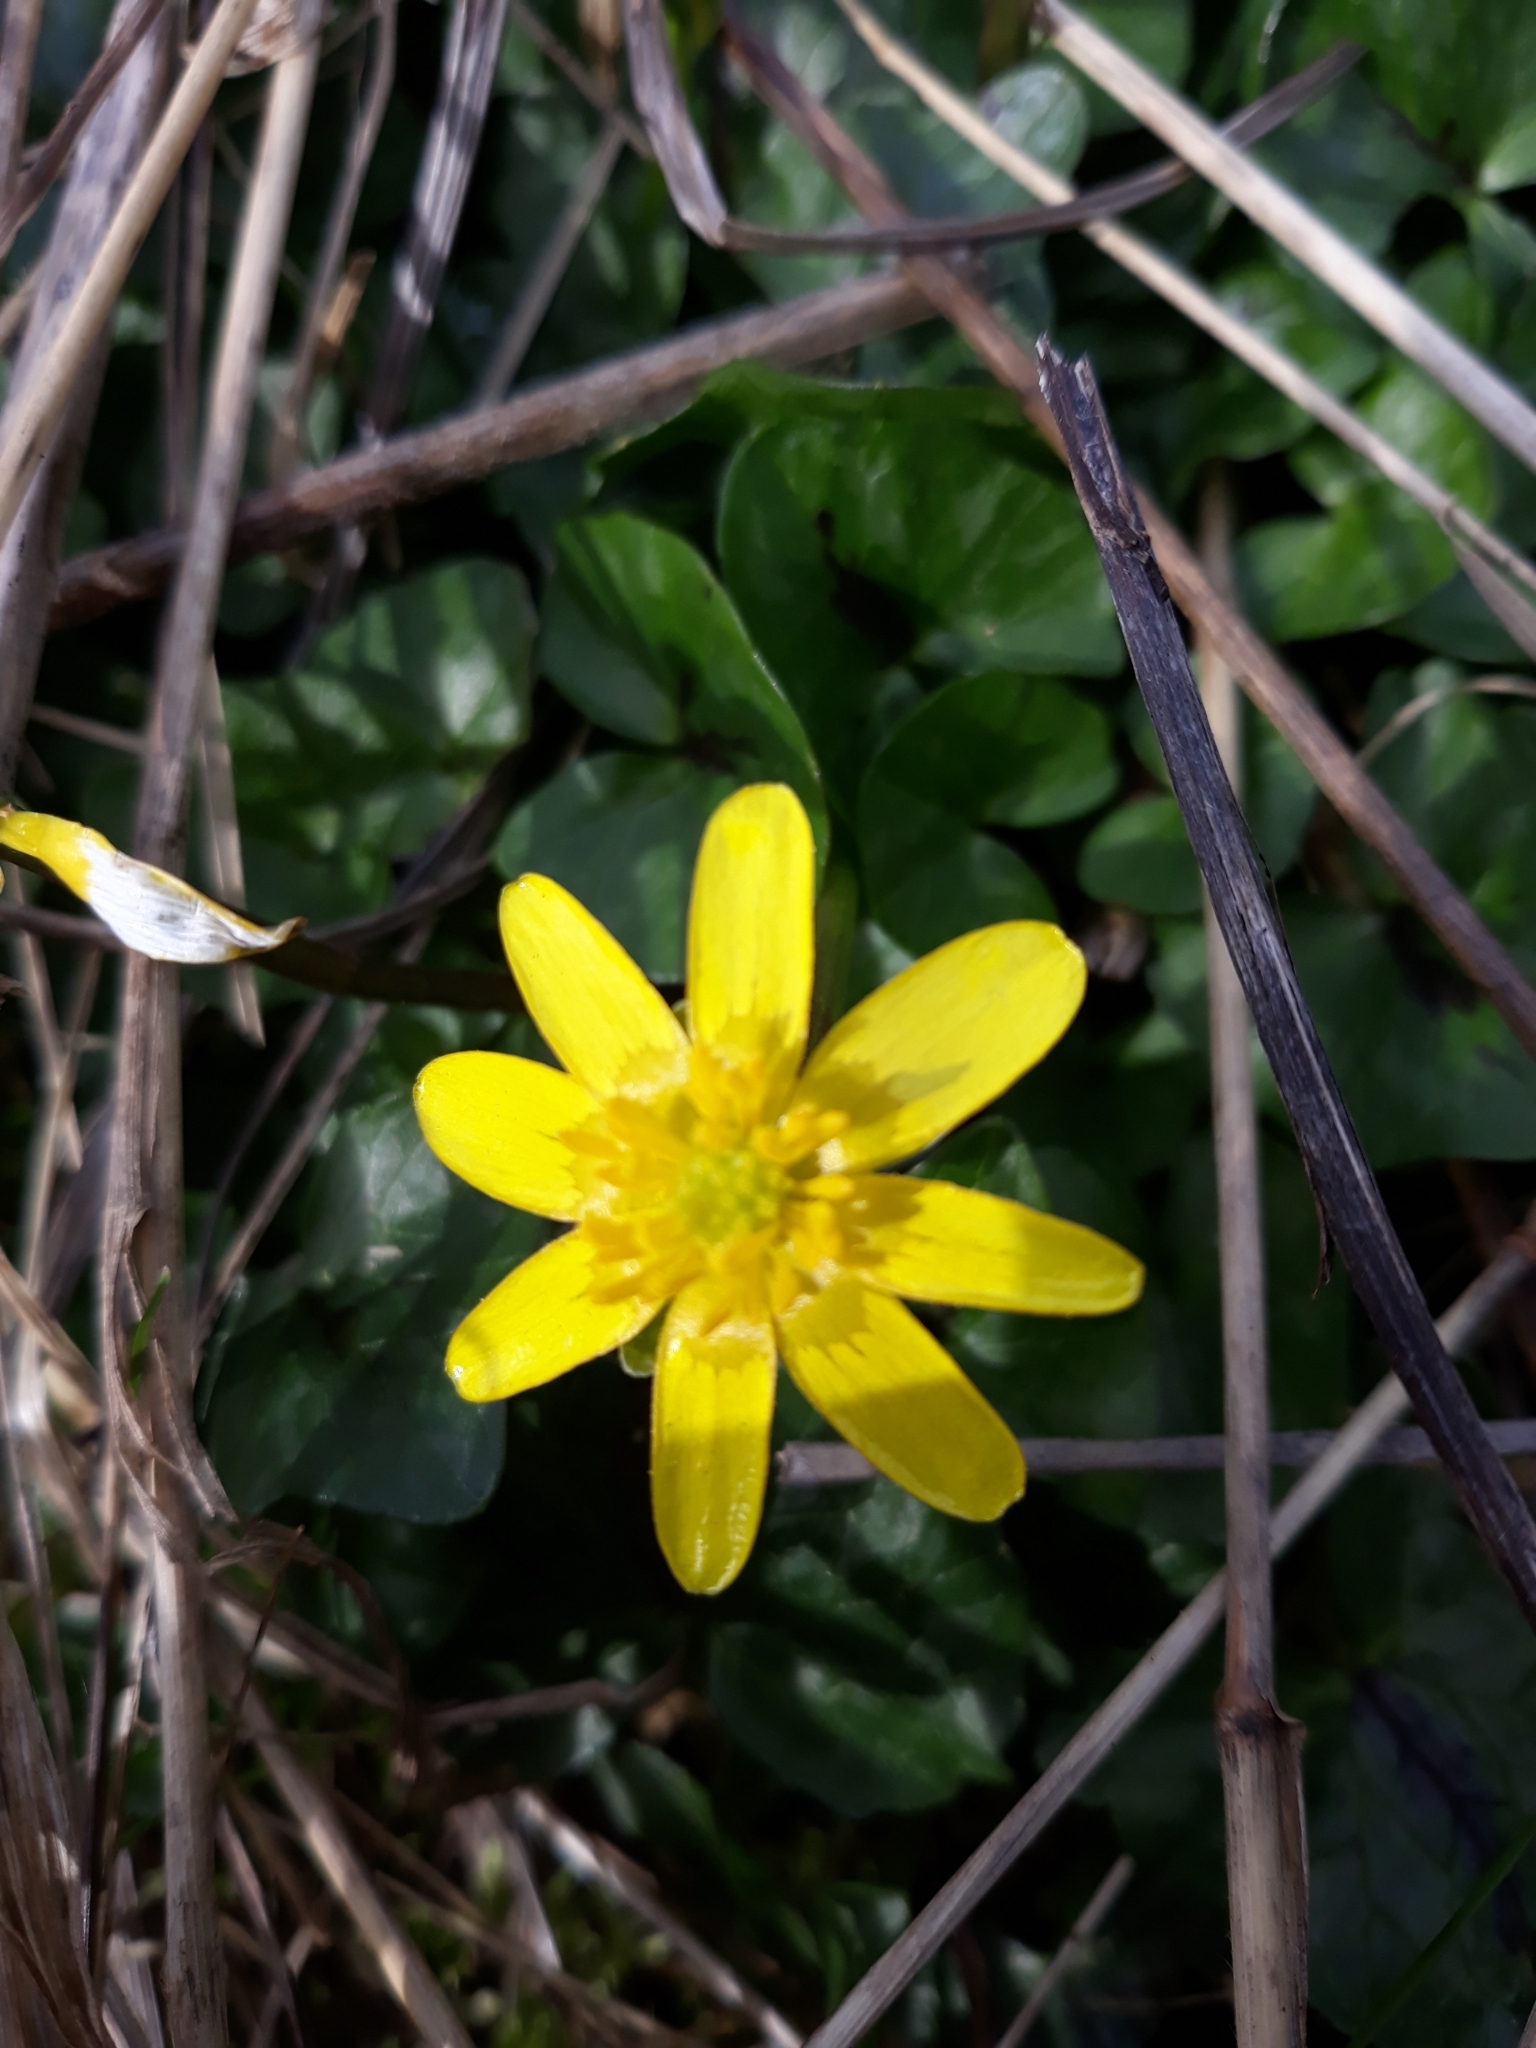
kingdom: Plantae
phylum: Tracheophyta
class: Magnoliopsida
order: Ranunculales
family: Ranunculaceae
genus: Ficaria
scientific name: Ficaria verna
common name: Lesser celandine
